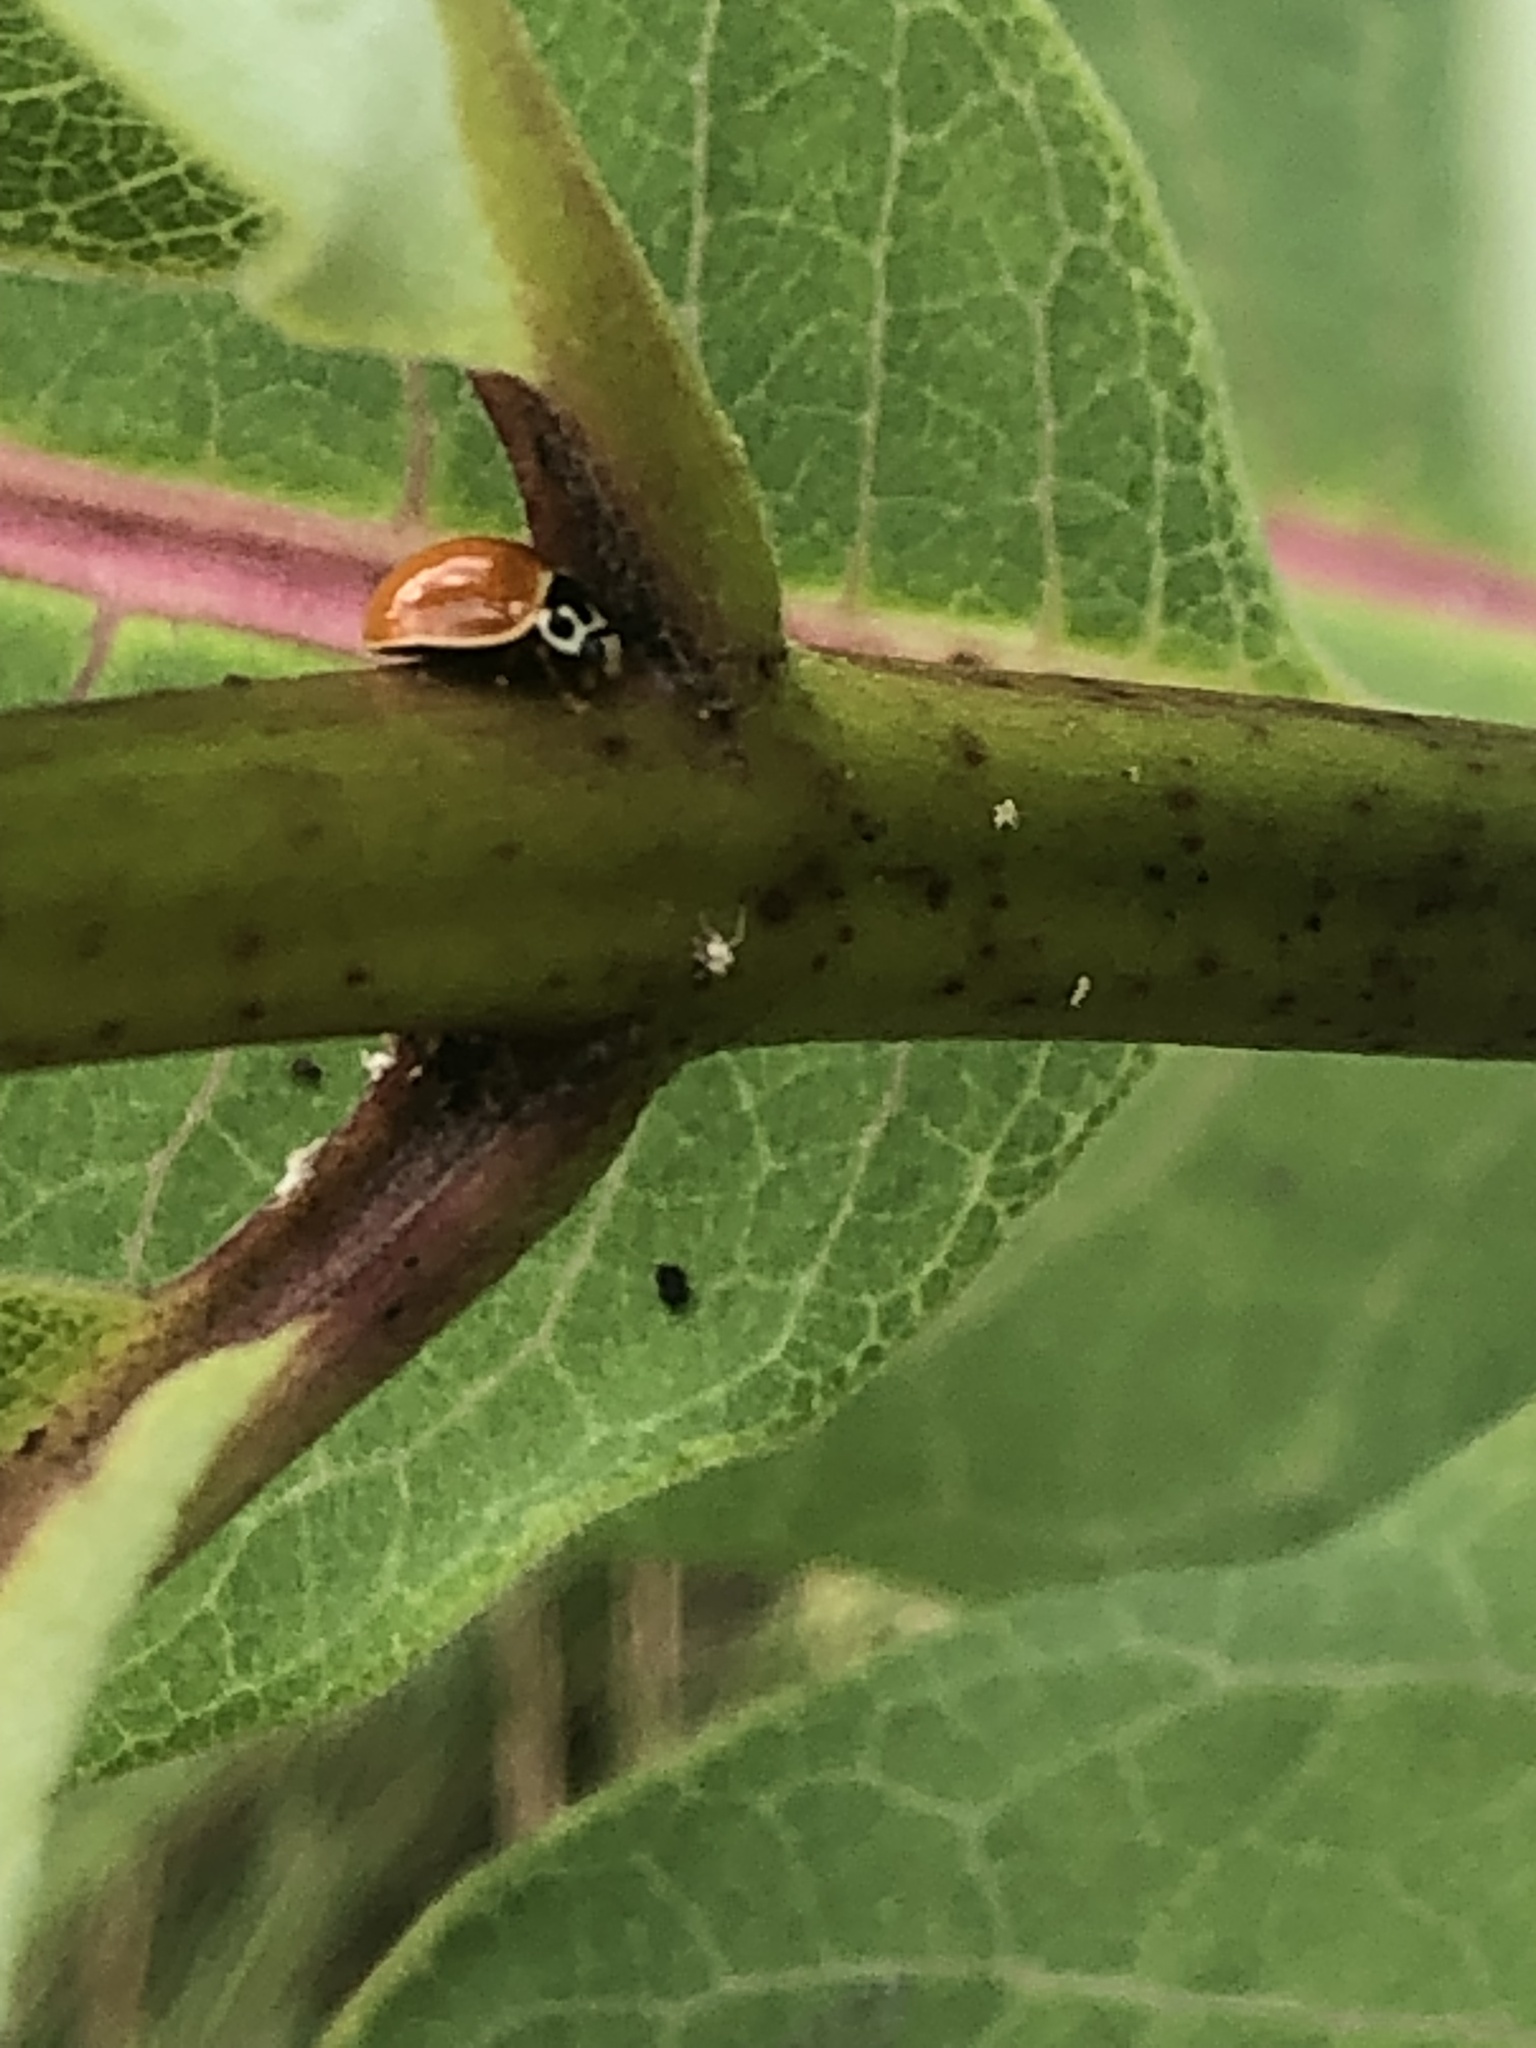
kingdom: Animalia
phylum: Arthropoda
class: Insecta
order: Coleoptera
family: Coccinellidae
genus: Cycloneda
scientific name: Cycloneda munda
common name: Polished lady beetle
